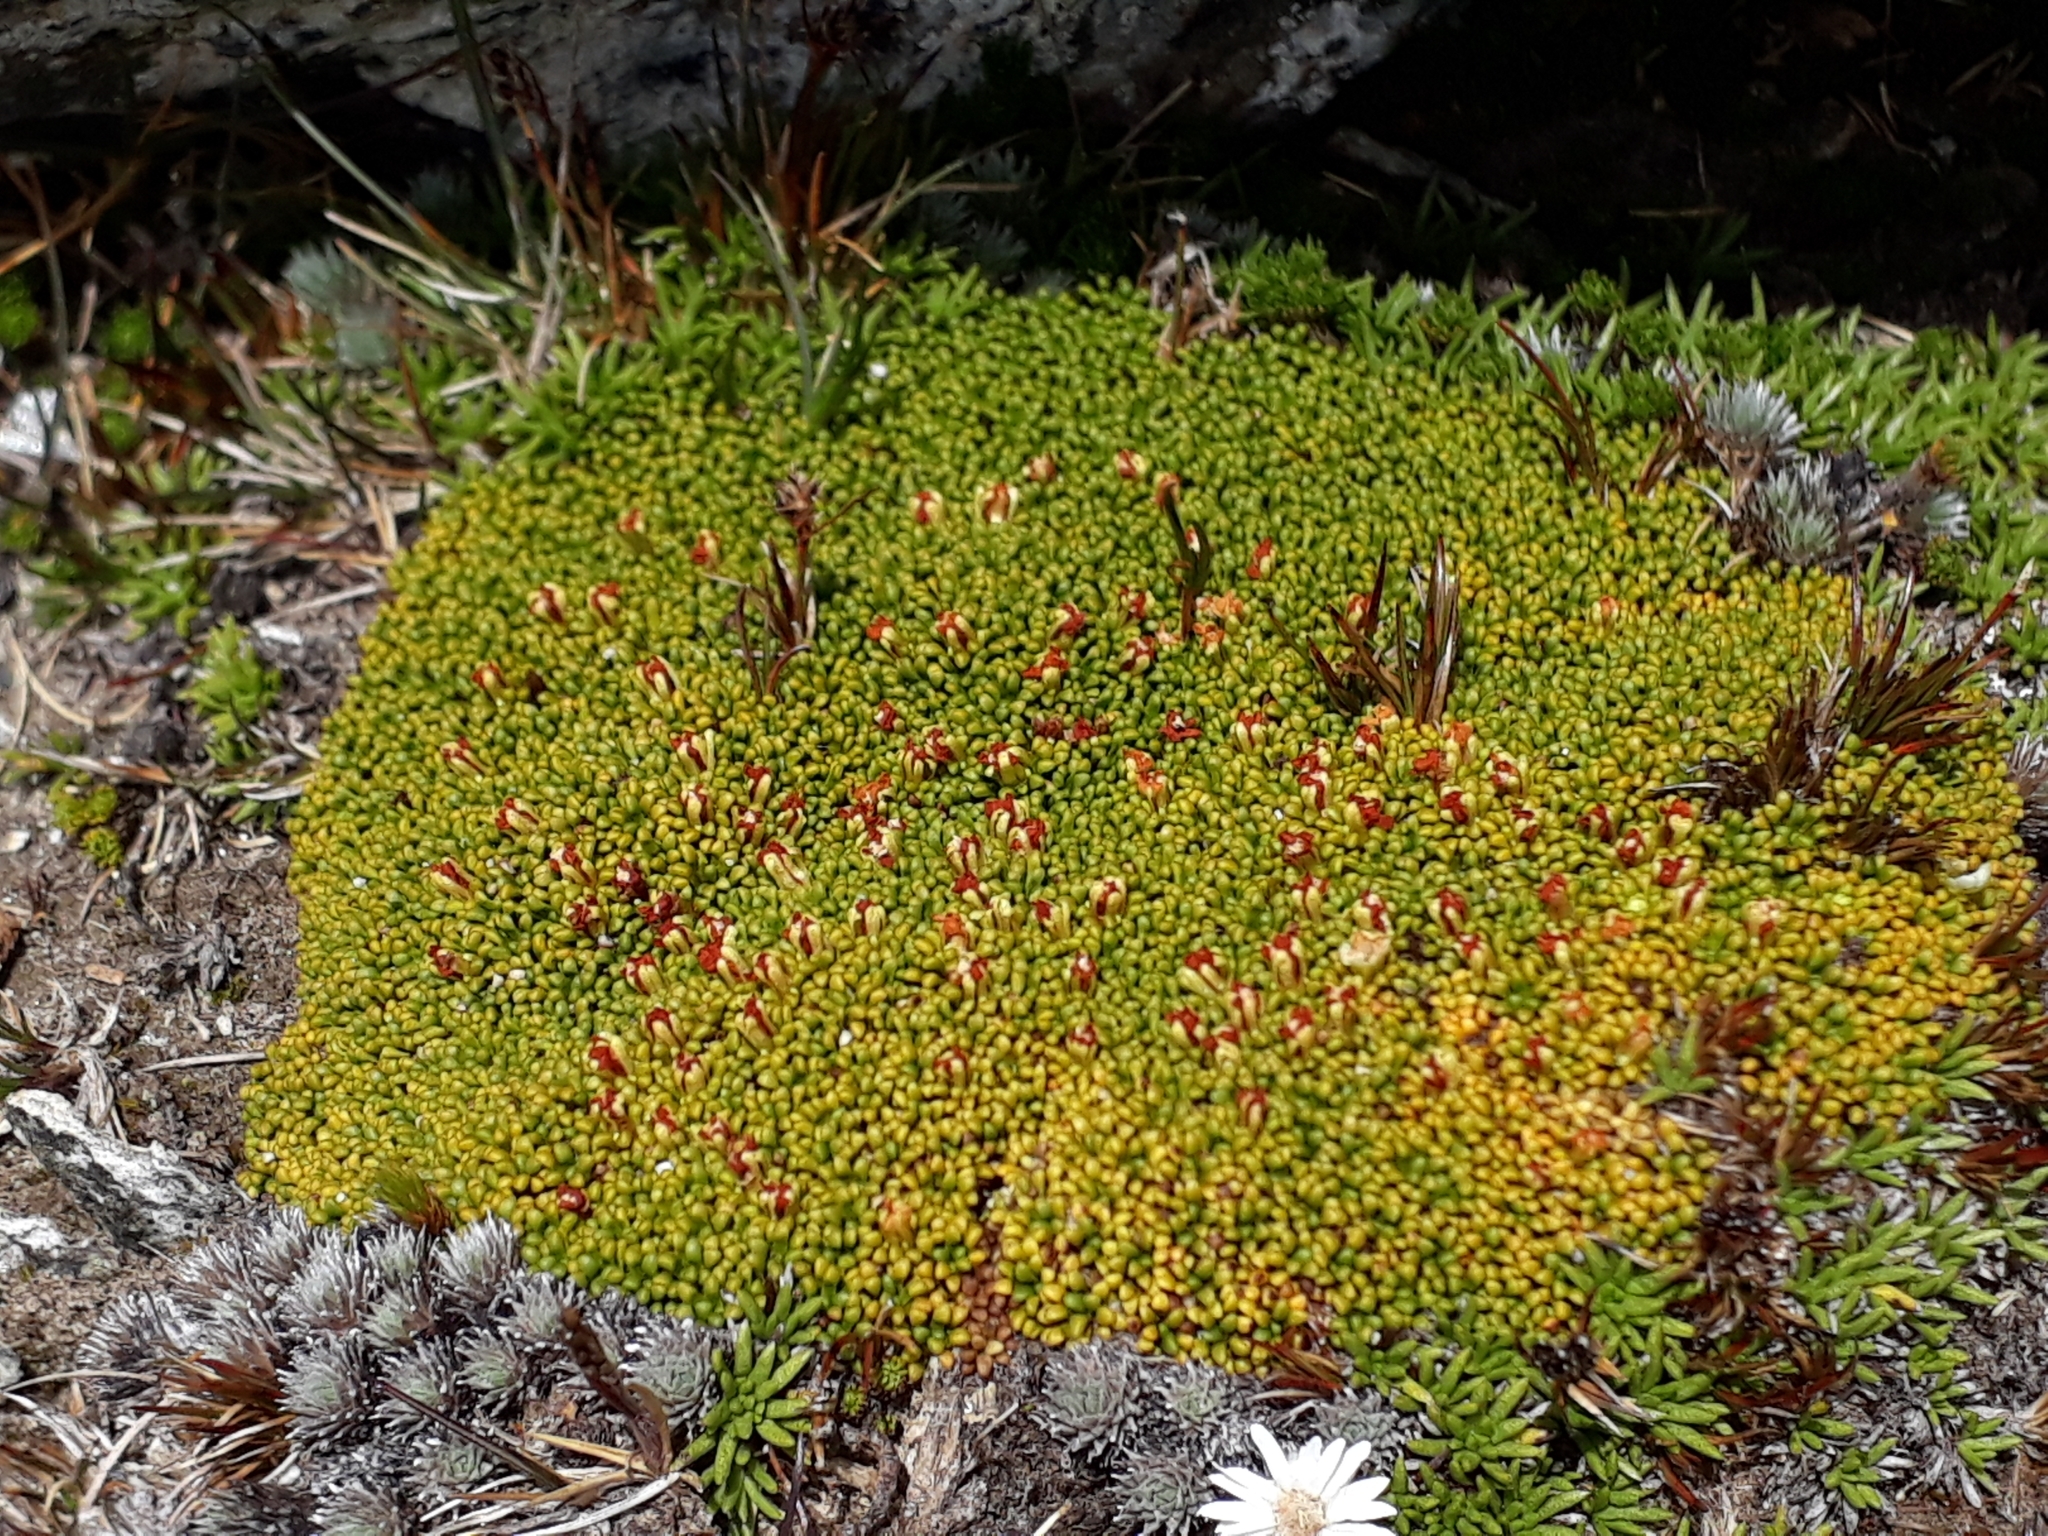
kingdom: Plantae
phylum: Tracheophyta
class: Magnoliopsida
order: Asterales
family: Stylidiaceae
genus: Phyllachne
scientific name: Phyllachne rubra
